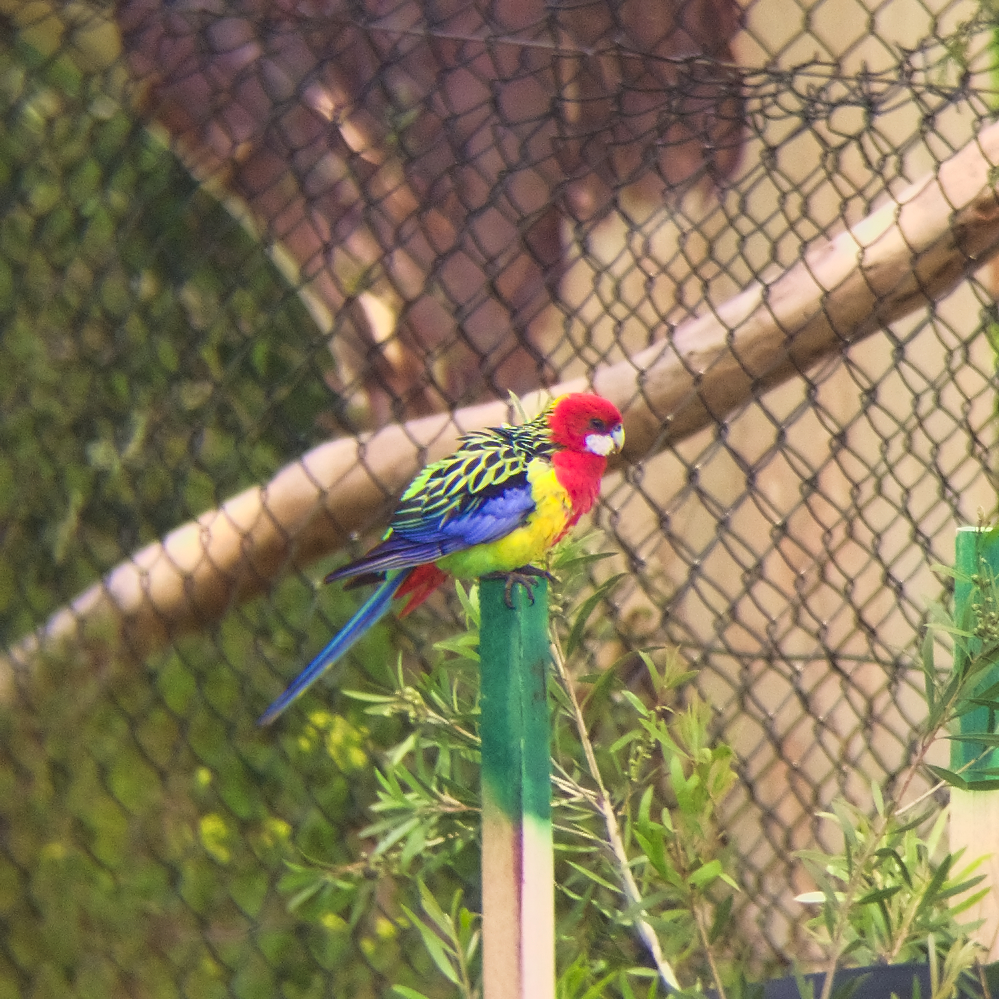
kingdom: Animalia
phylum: Chordata
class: Aves
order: Psittaciformes
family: Psittacidae
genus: Platycercus
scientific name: Platycercus eximius
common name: Eastern rosella
